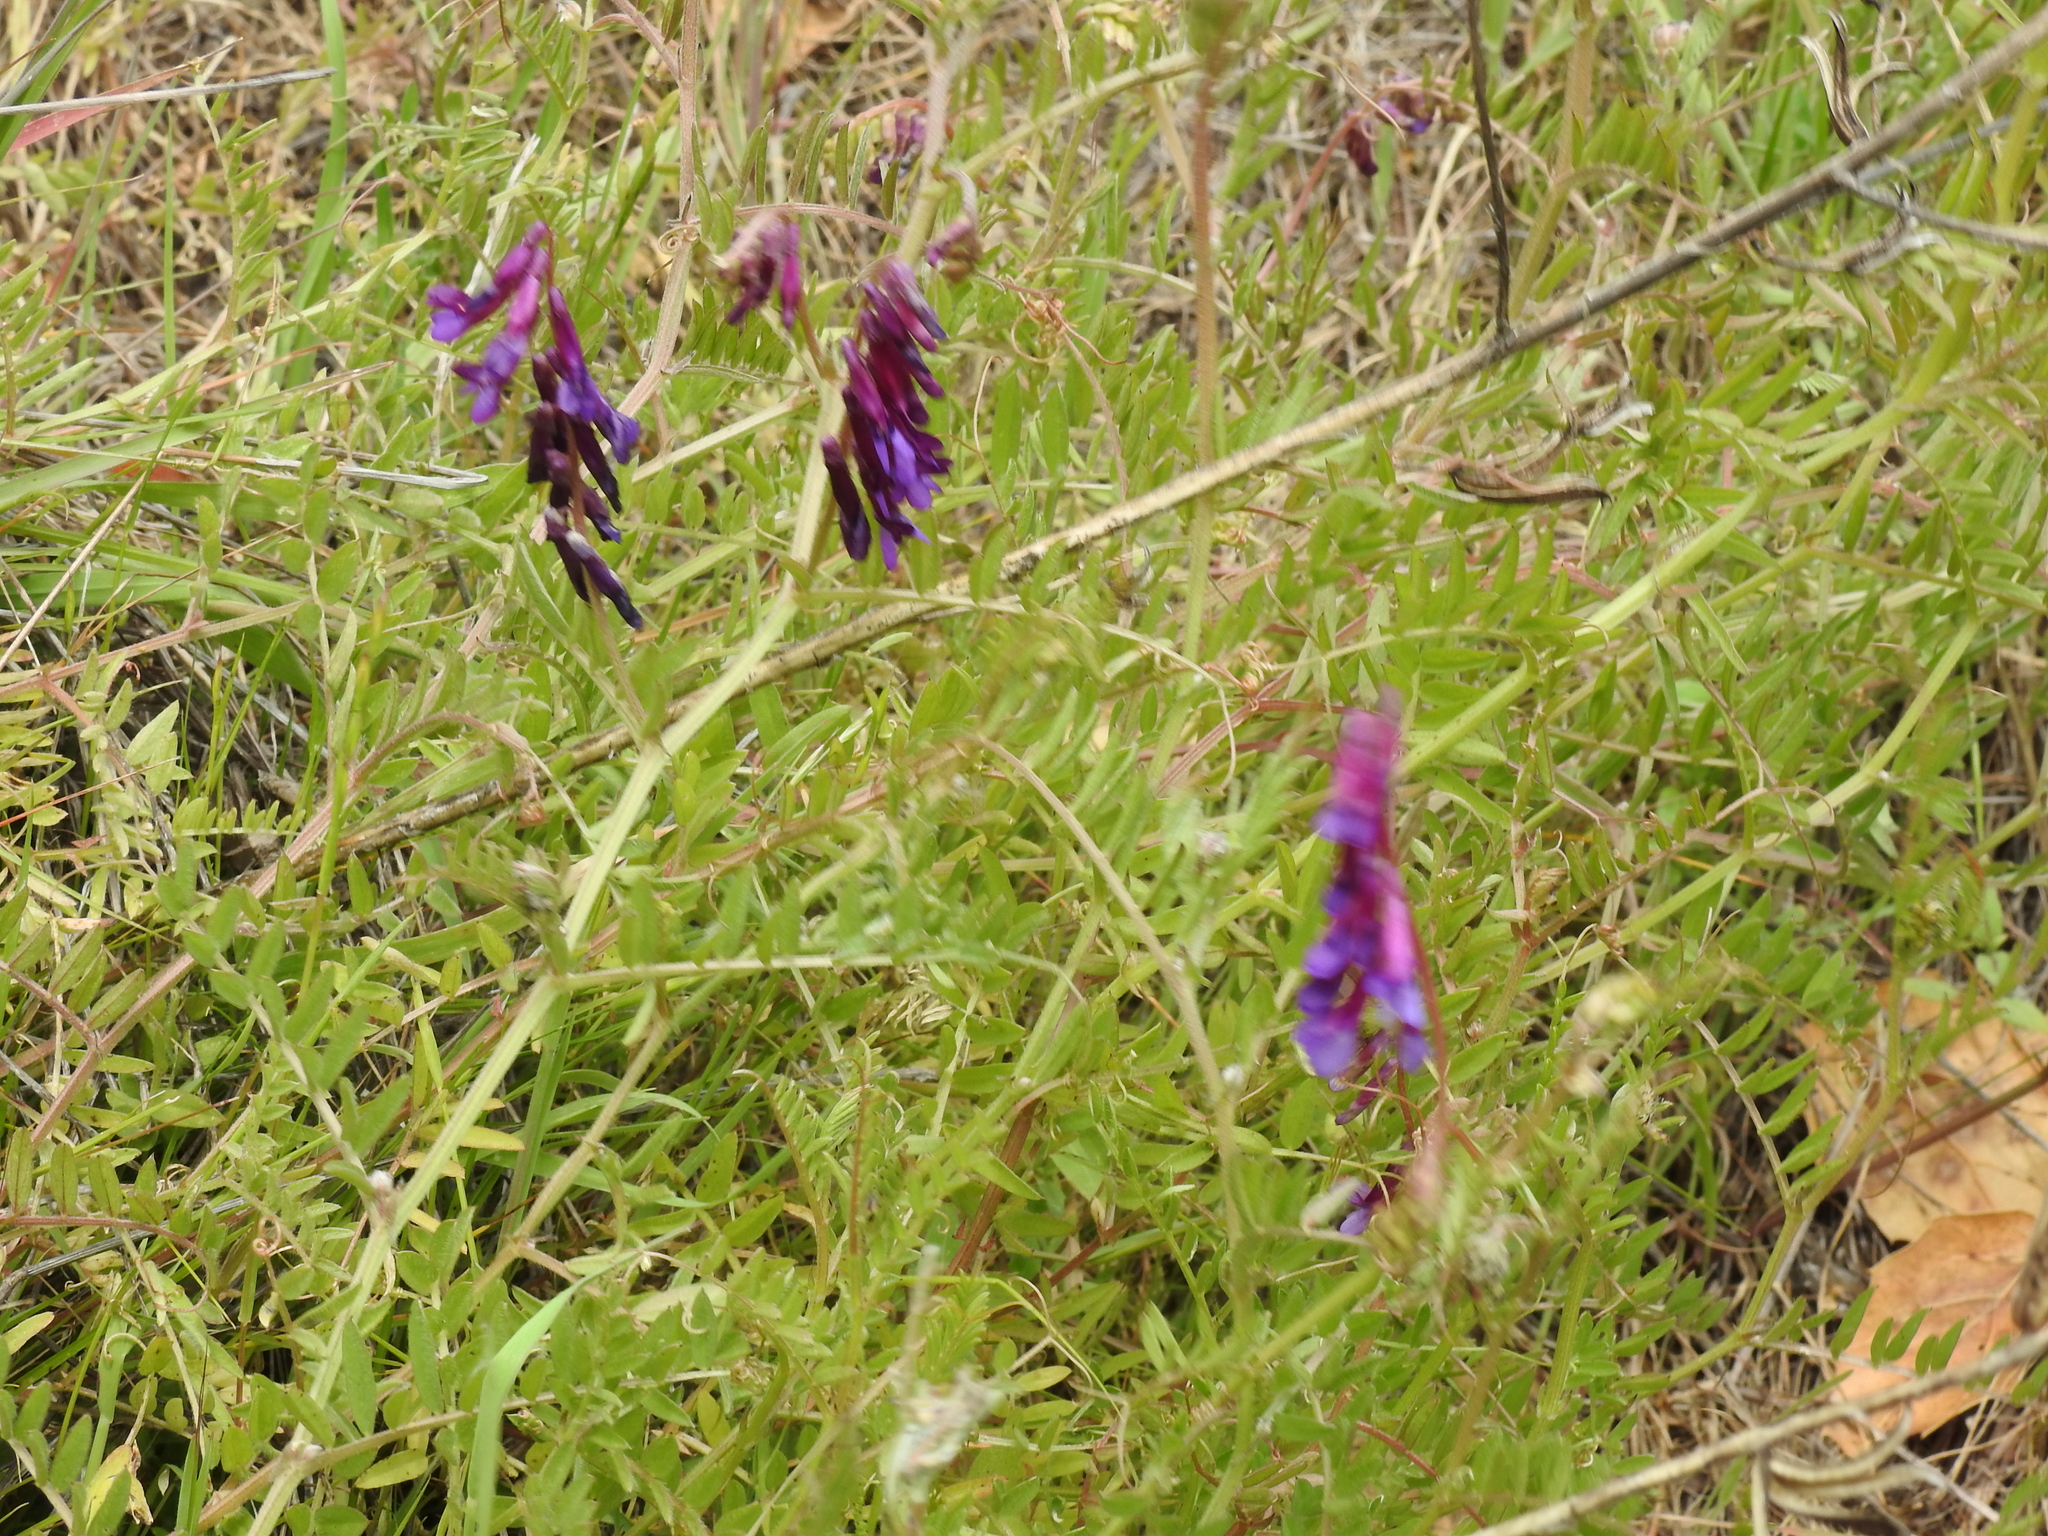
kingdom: Plantae
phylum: Tracheophyta
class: Magnoliopsida
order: Fabales
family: Fabaceae
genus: Vicia
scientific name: Vicia villosa
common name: Fodder vetch
